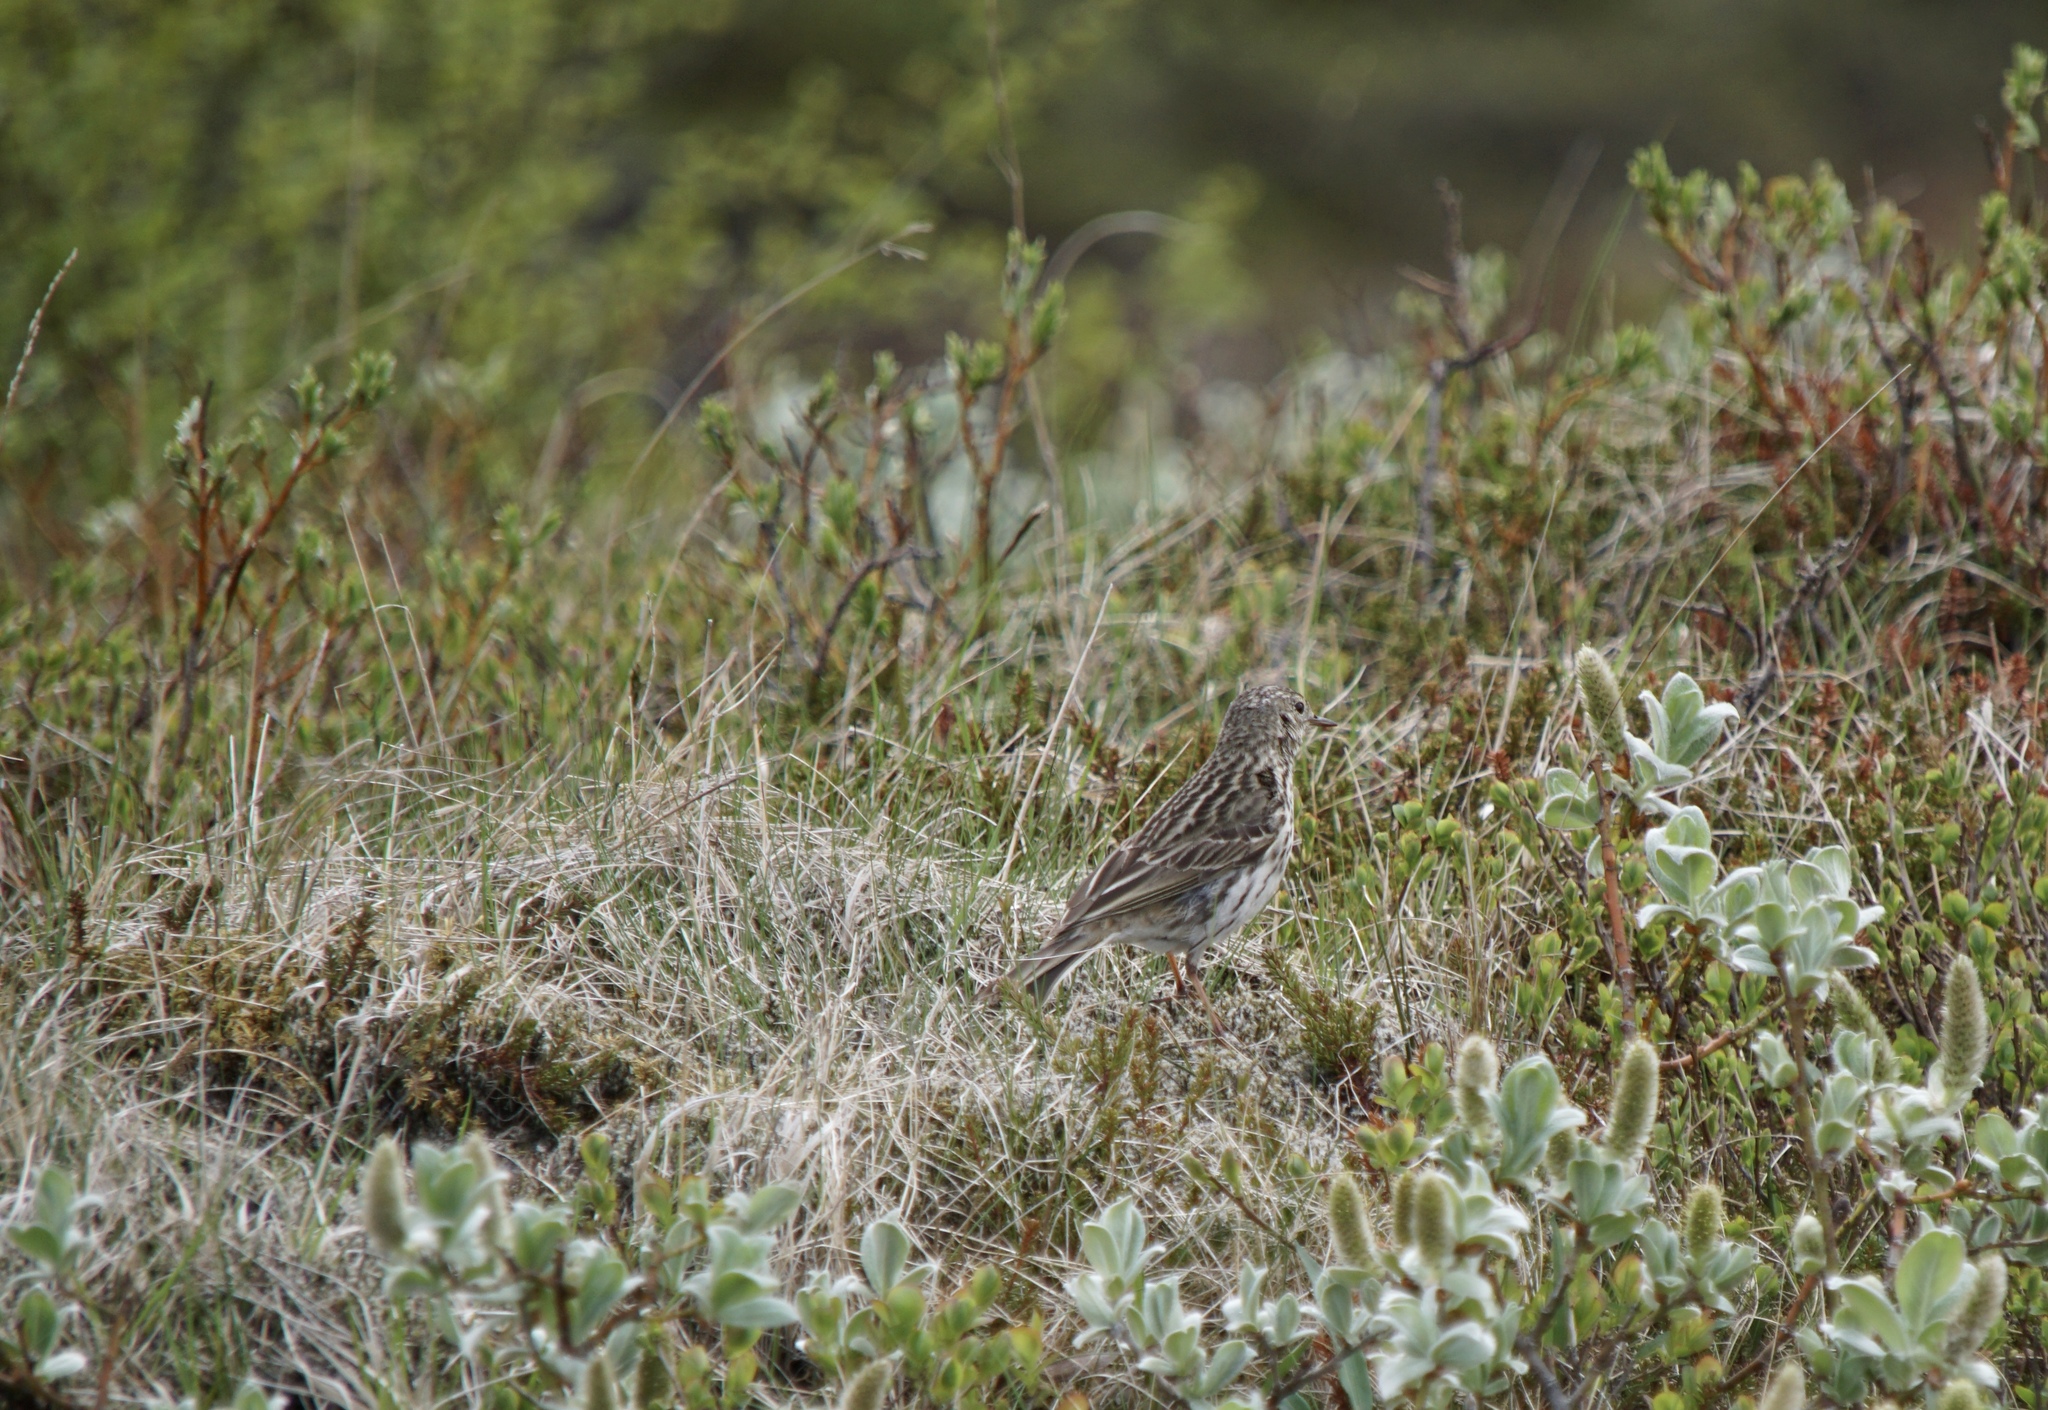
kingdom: Animalia
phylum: Chordata
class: Aves
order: Passeriformes
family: Motacillidae
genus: Anthus
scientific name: Anthus pratensis
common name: Meadow pipit
